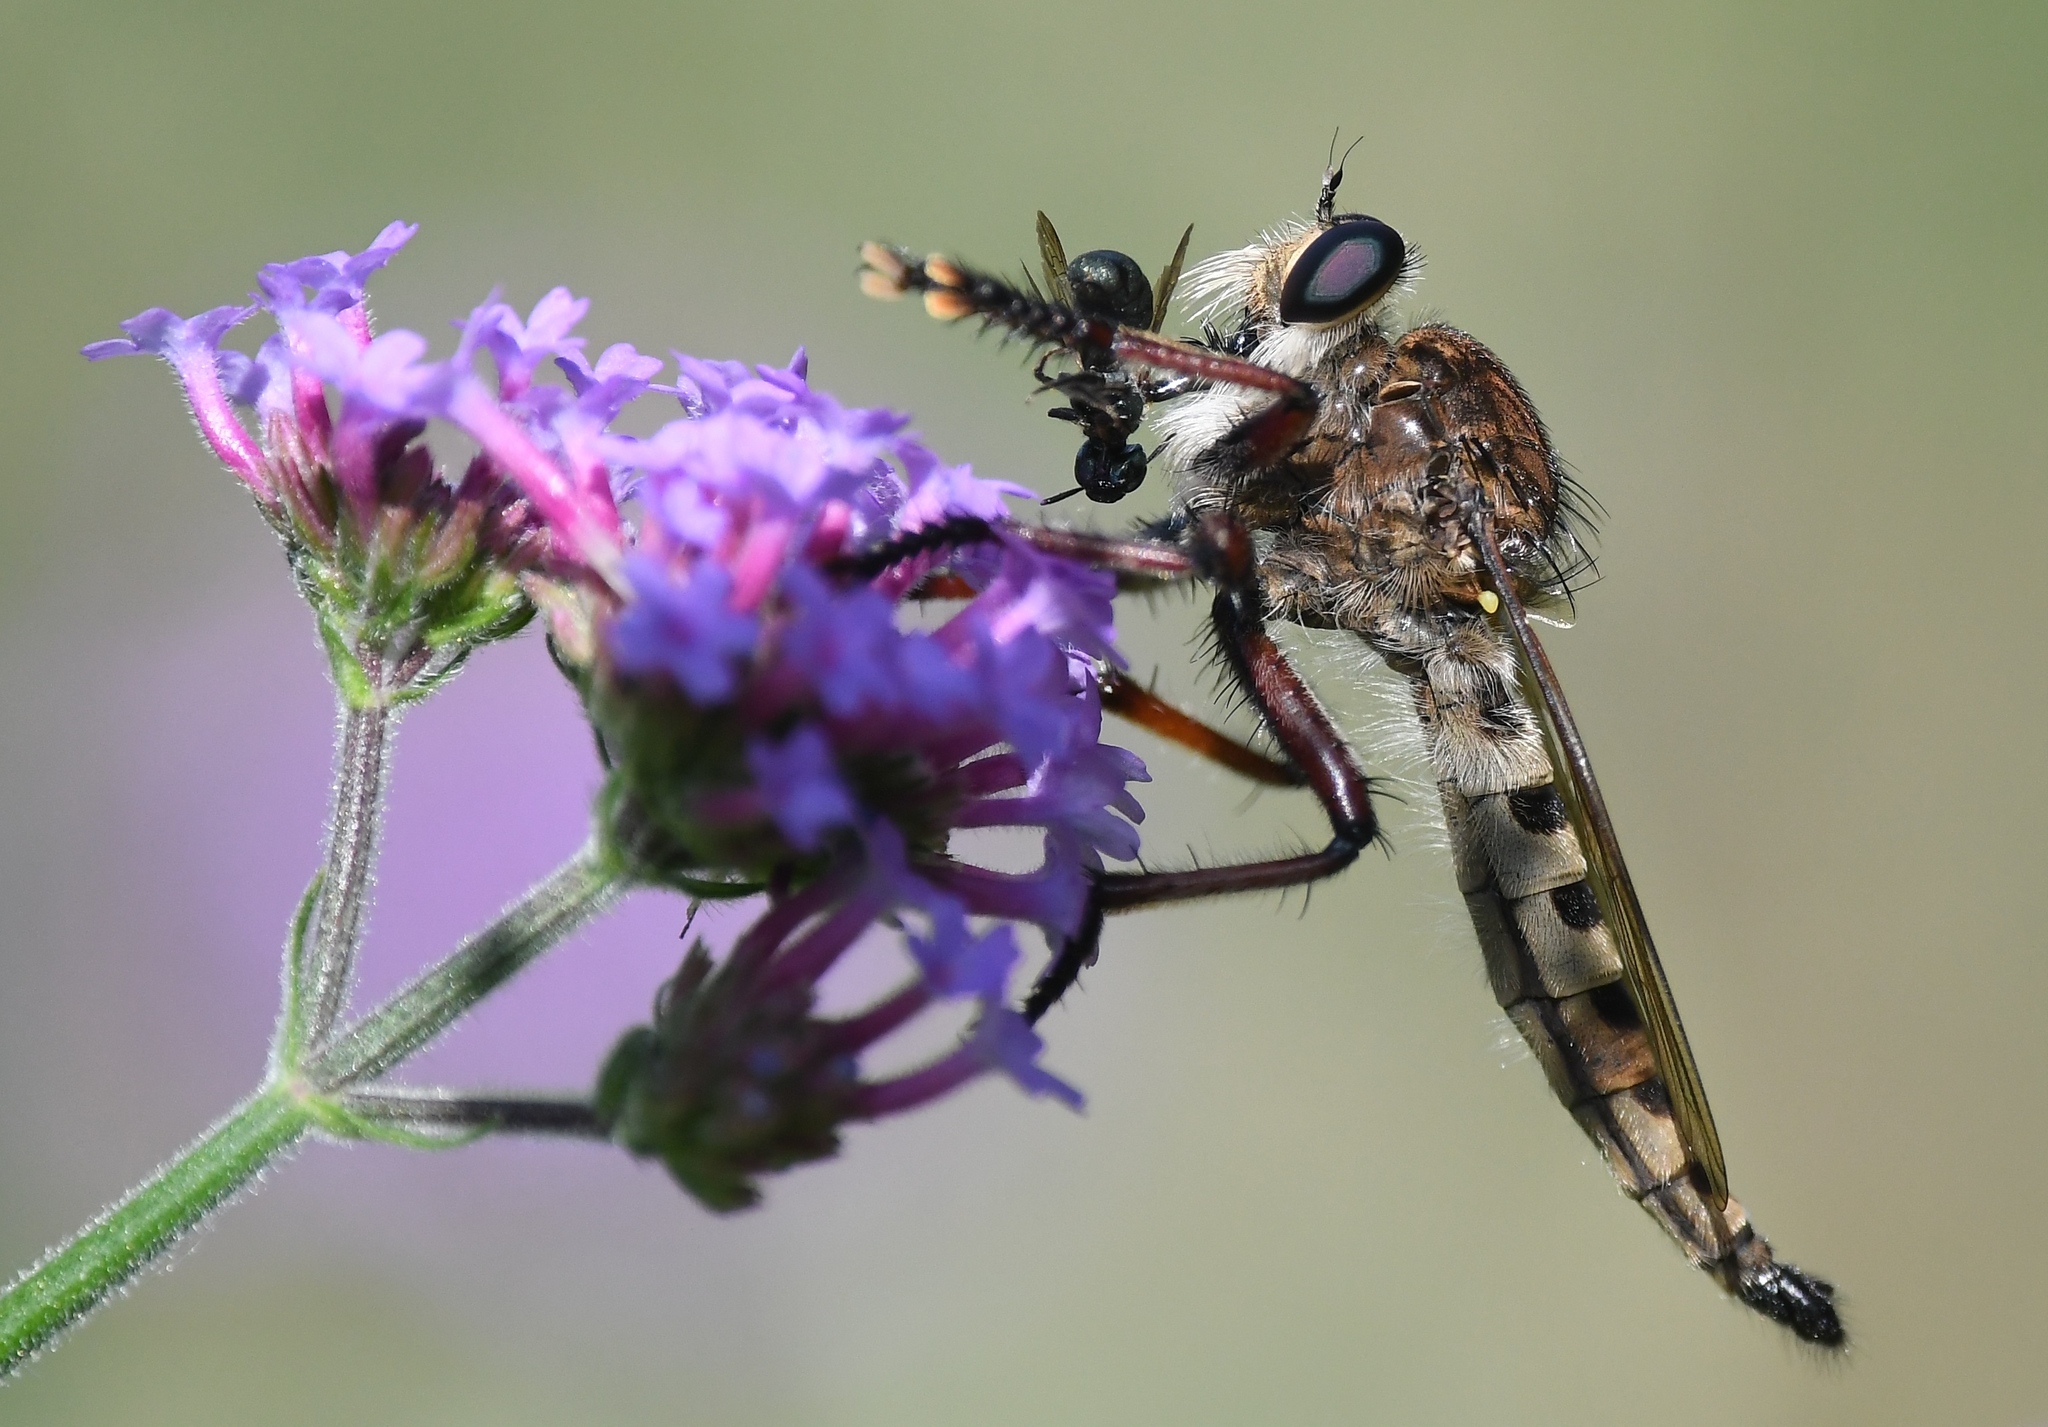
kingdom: Animalia
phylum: Arthropoda
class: Insecta
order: Diptera
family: Asilidae
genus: Promachus
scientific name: Promachus hinei
